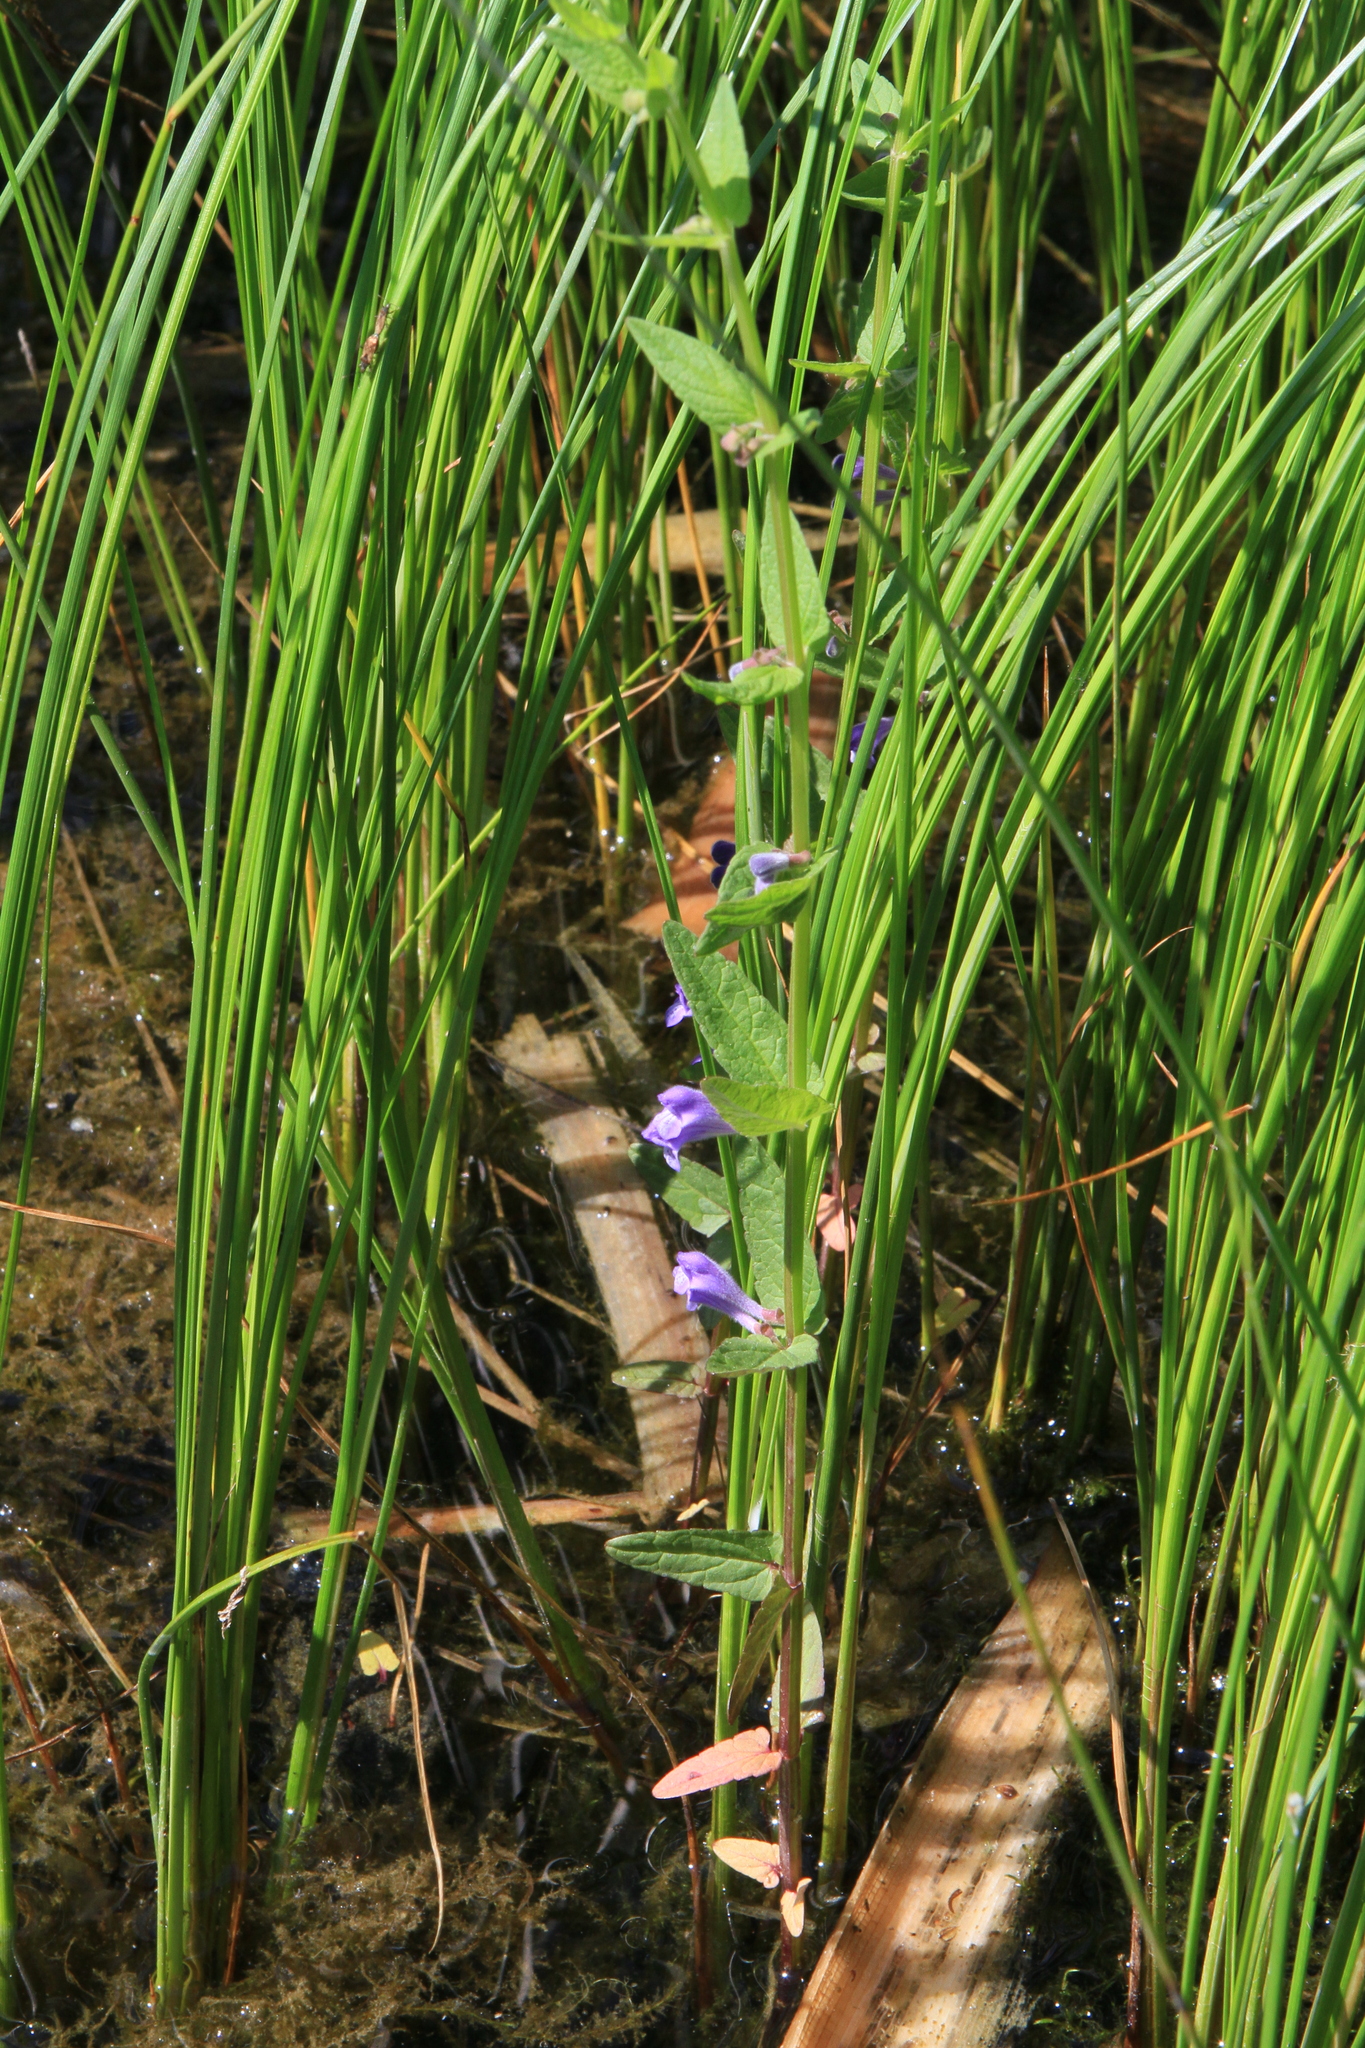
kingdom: Plantae
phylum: Tracheophyta
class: Magnoliopsida
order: Lamiales
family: Lamiaceae
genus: Scutellaria
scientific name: Scutellaria galericulata
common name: Skullcap
